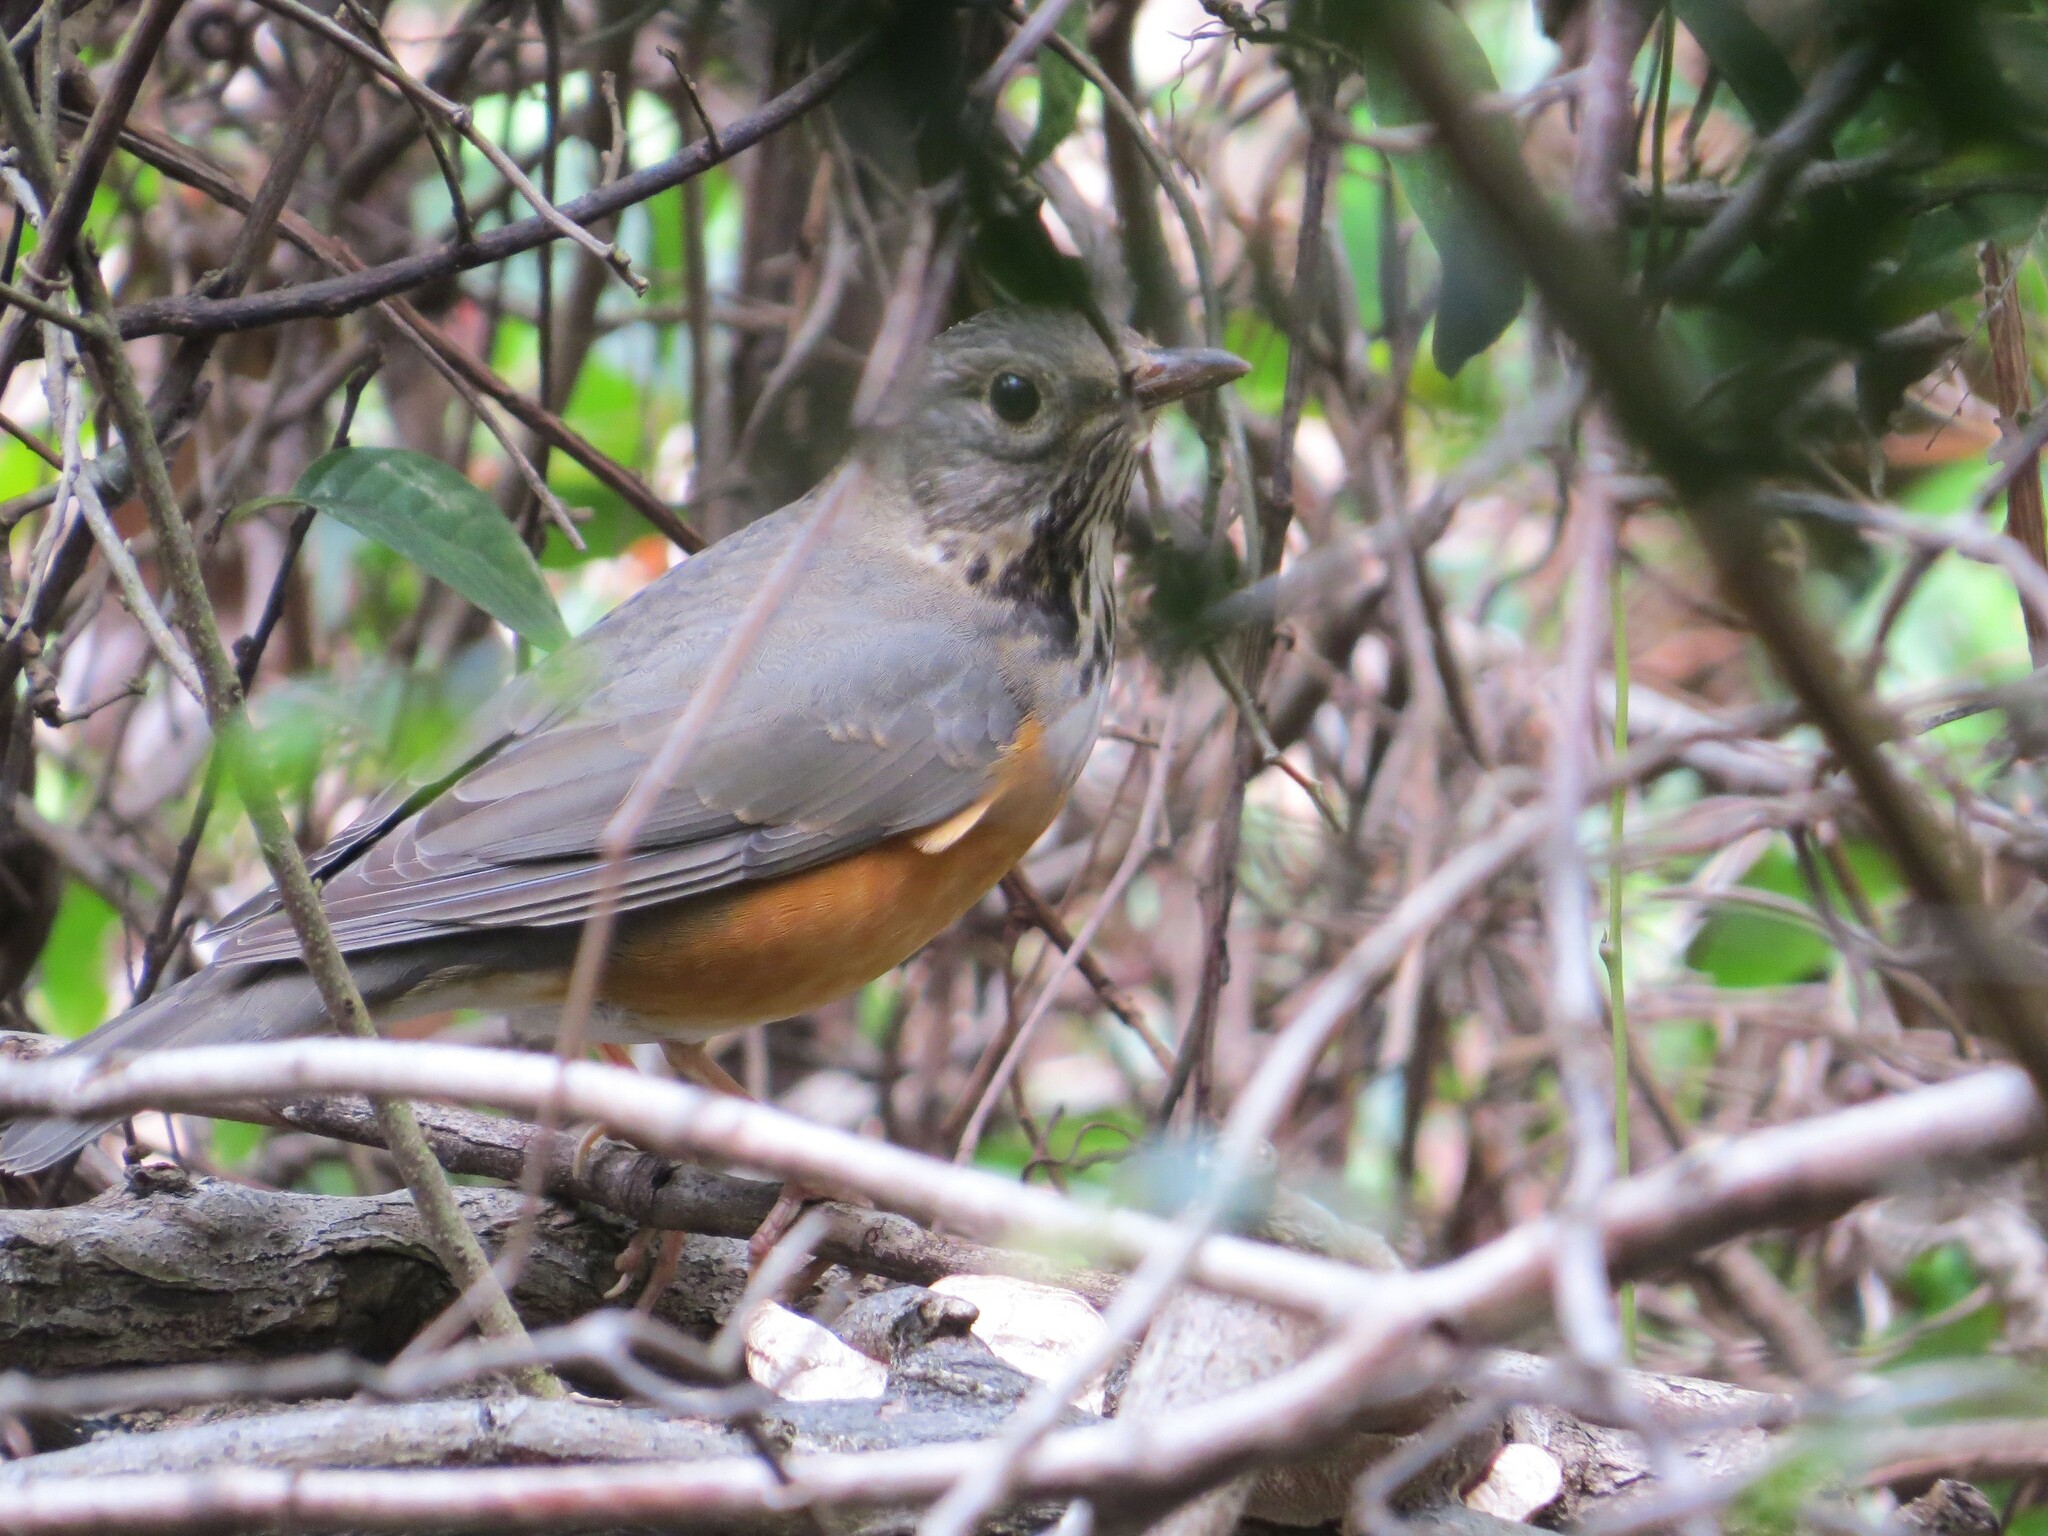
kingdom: Animalia
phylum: Chordata
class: Aves
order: Passeriformes
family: Turdidae
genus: Turdus
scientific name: Turdus hortulorum
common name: Grey-backed thrush
